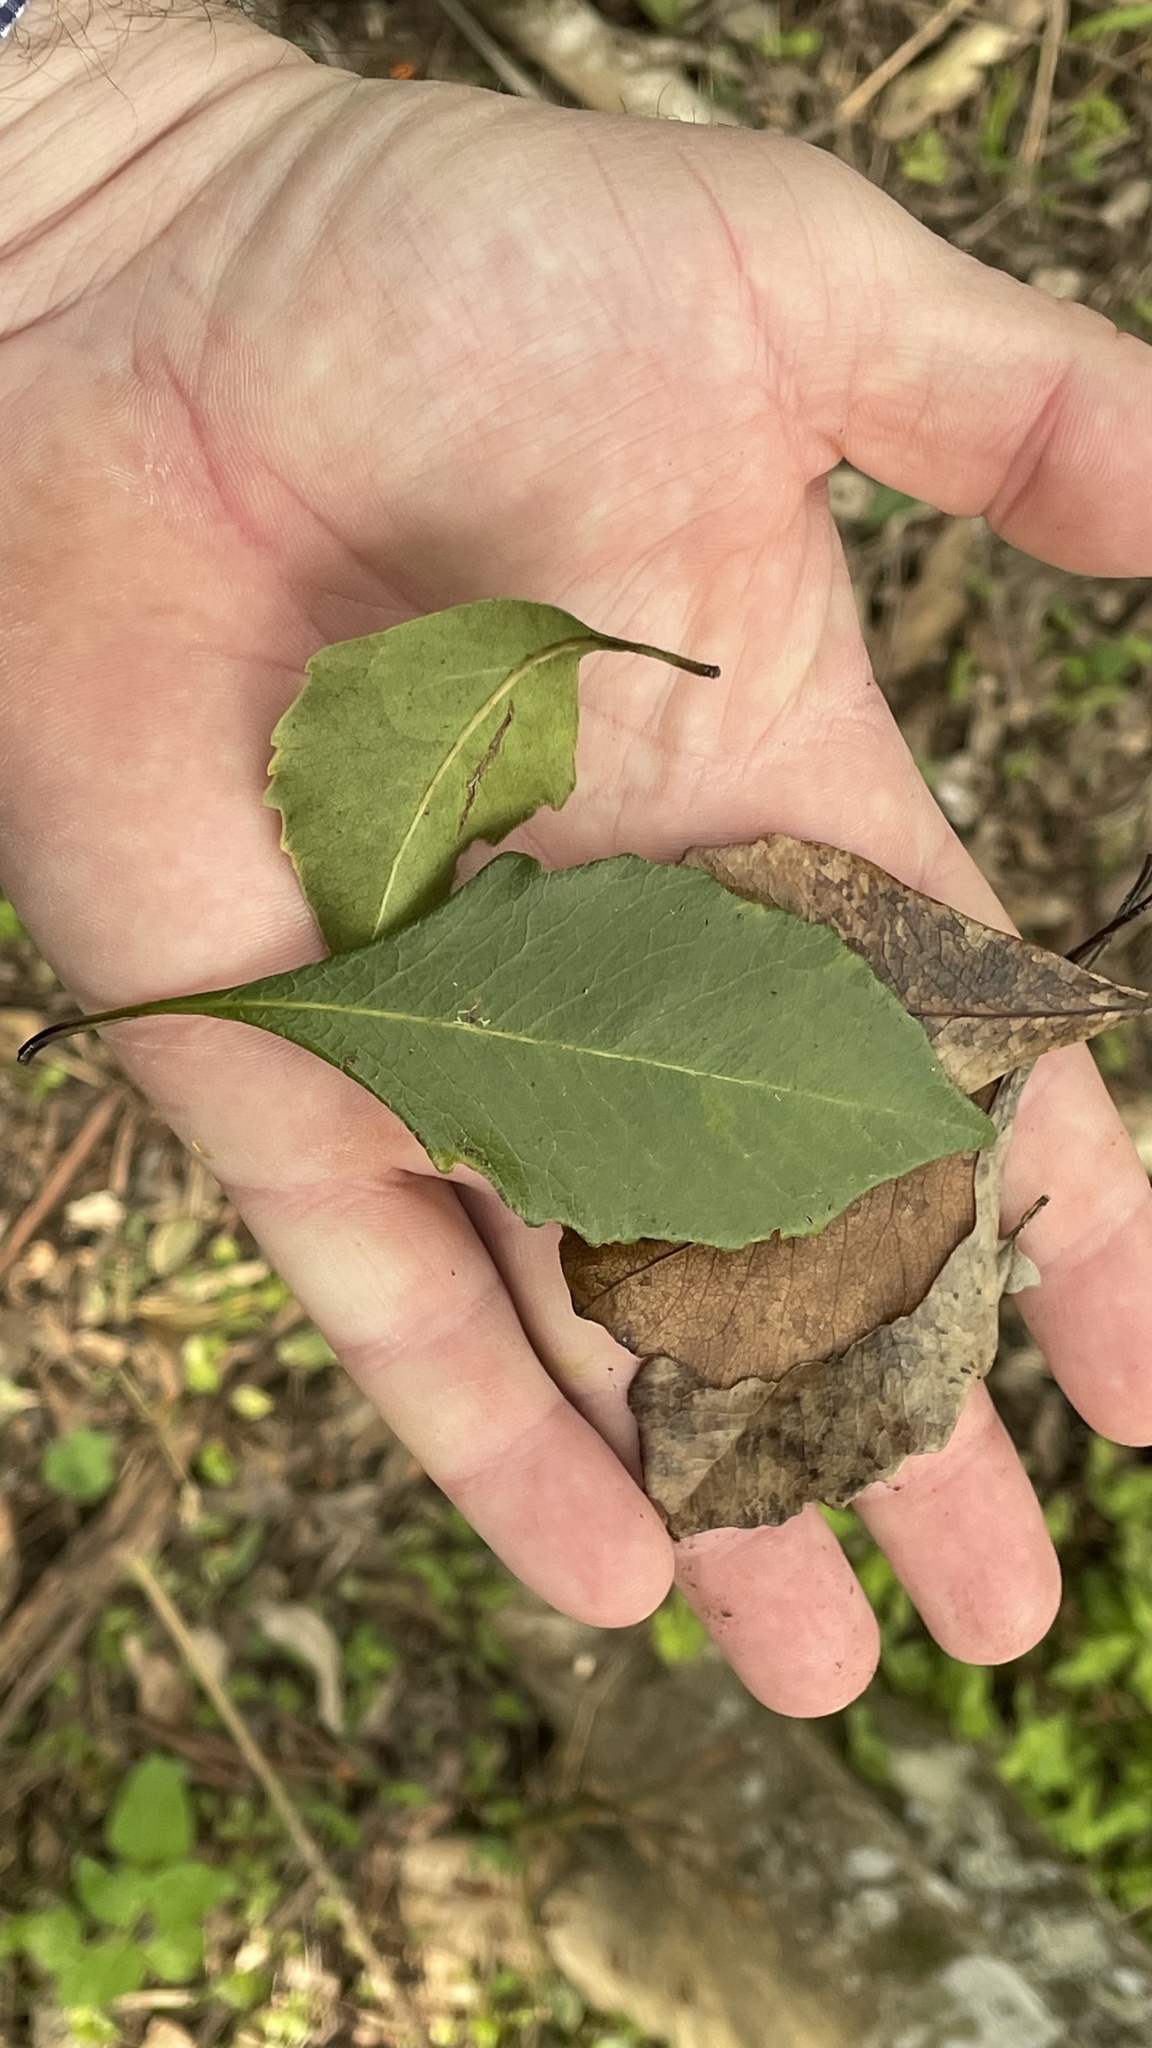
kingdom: Plantae
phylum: Tracheophyta
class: Magnoliopsida
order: Apiales
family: Pittosporaceae
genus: Auranticarpa
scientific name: Auranticarpa rhombifolia
